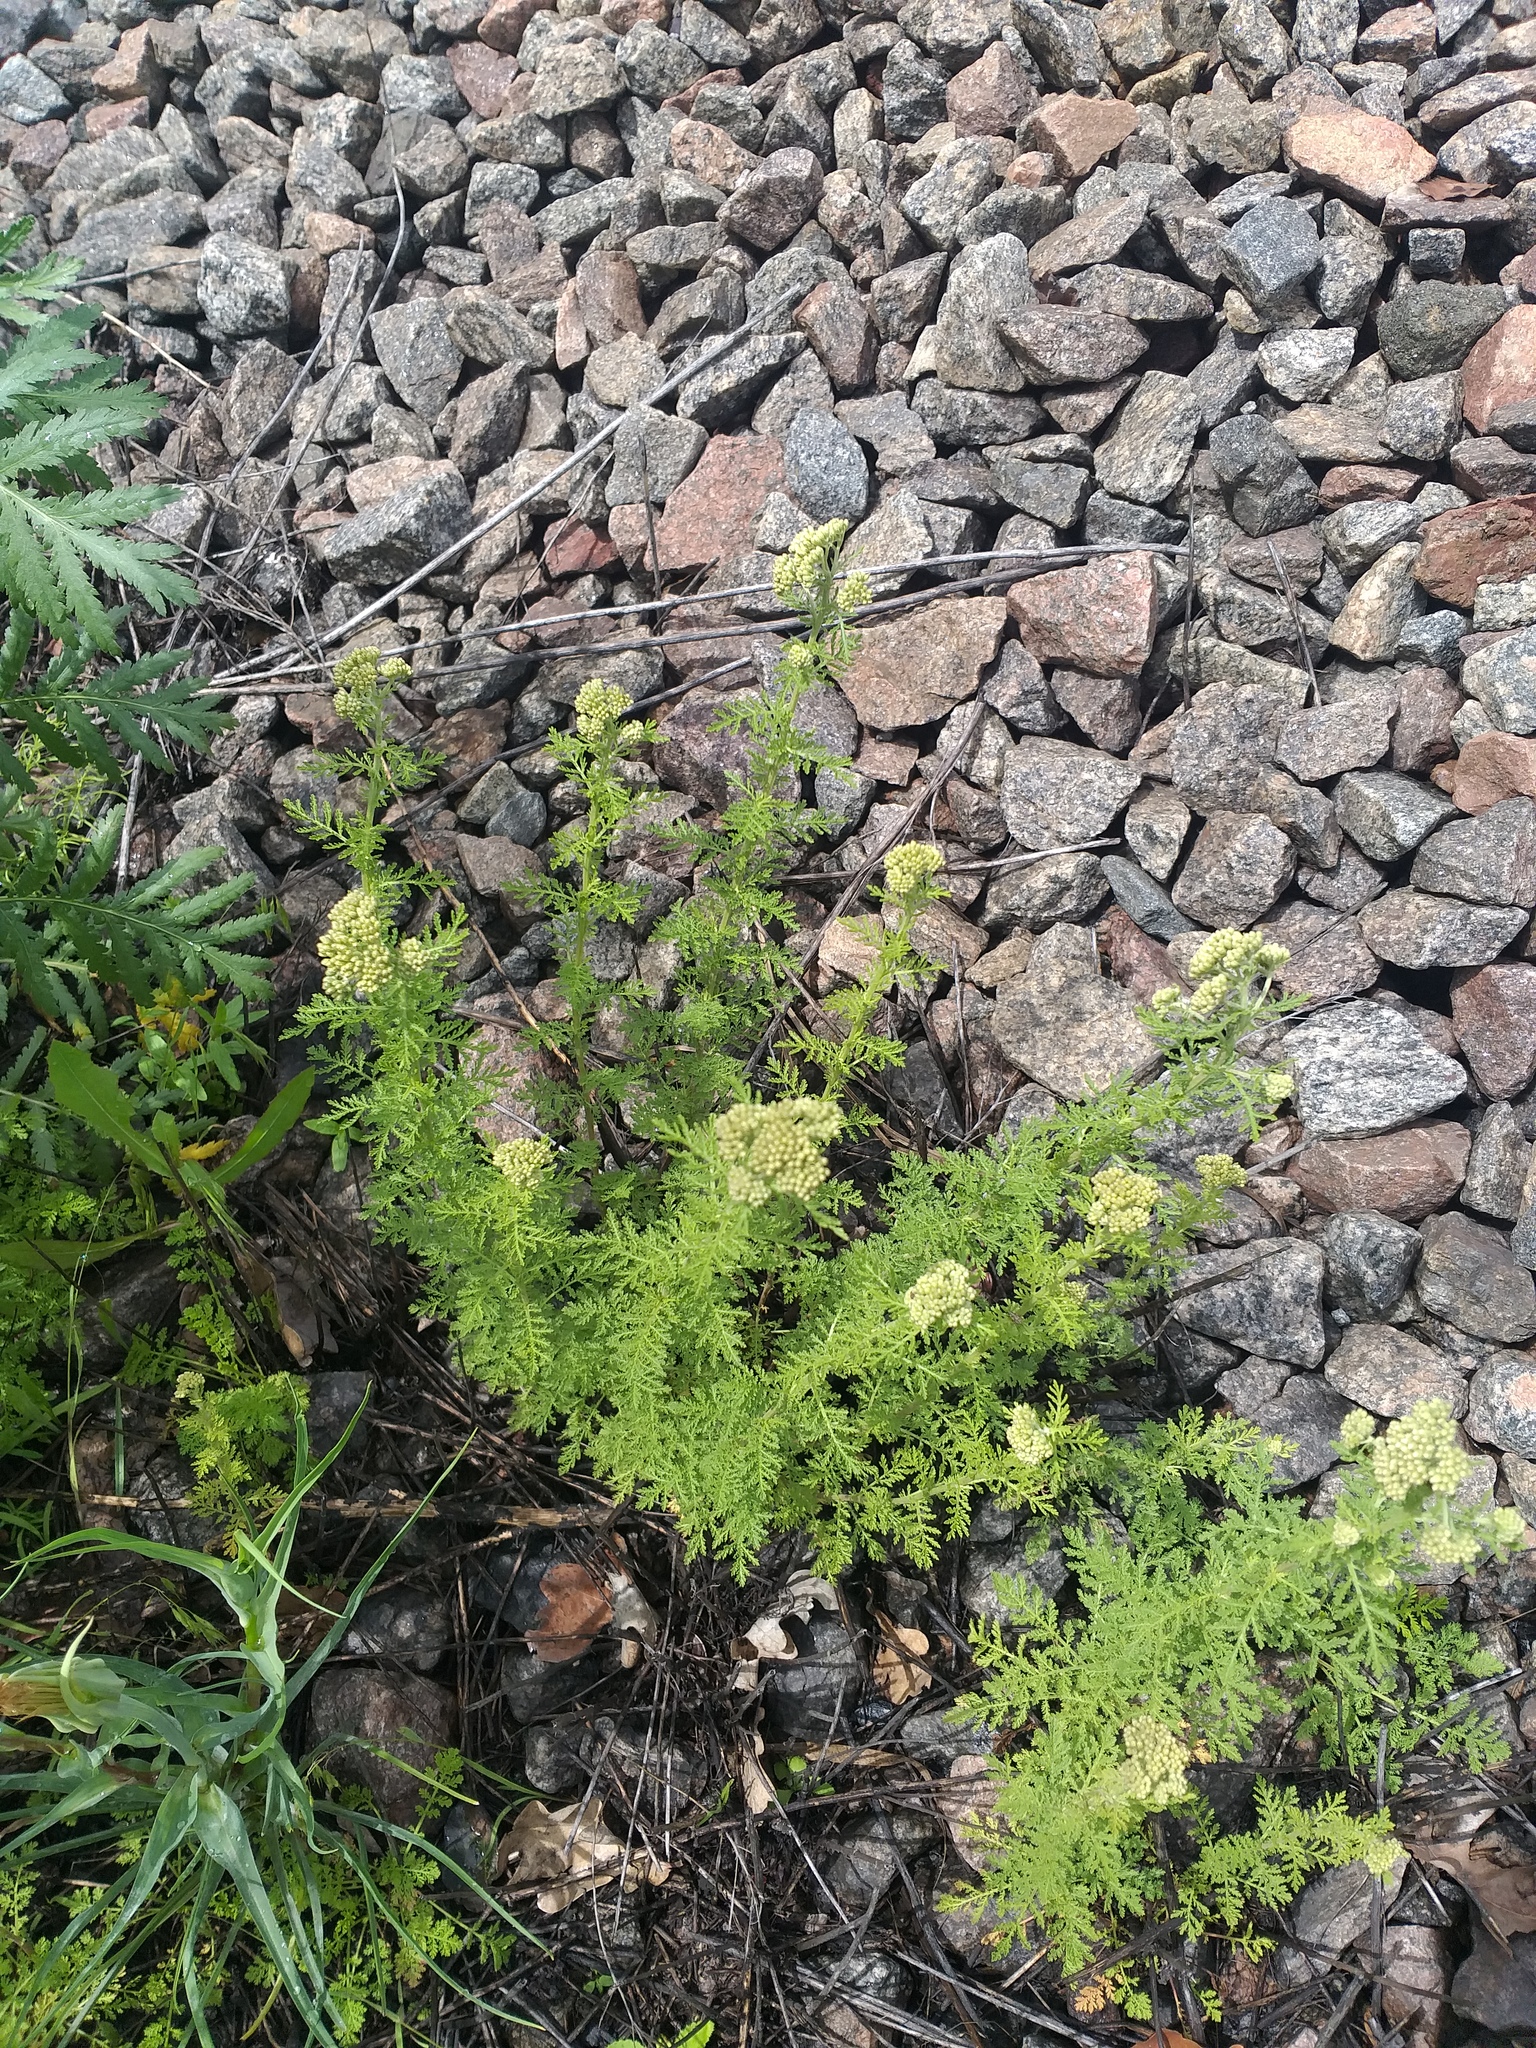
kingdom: Plantae
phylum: Tracheophyta
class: Magnoliopsida
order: Asterales
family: Asteraceae
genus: Achillea
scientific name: Achillea nobilis
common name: Noble yarrow
